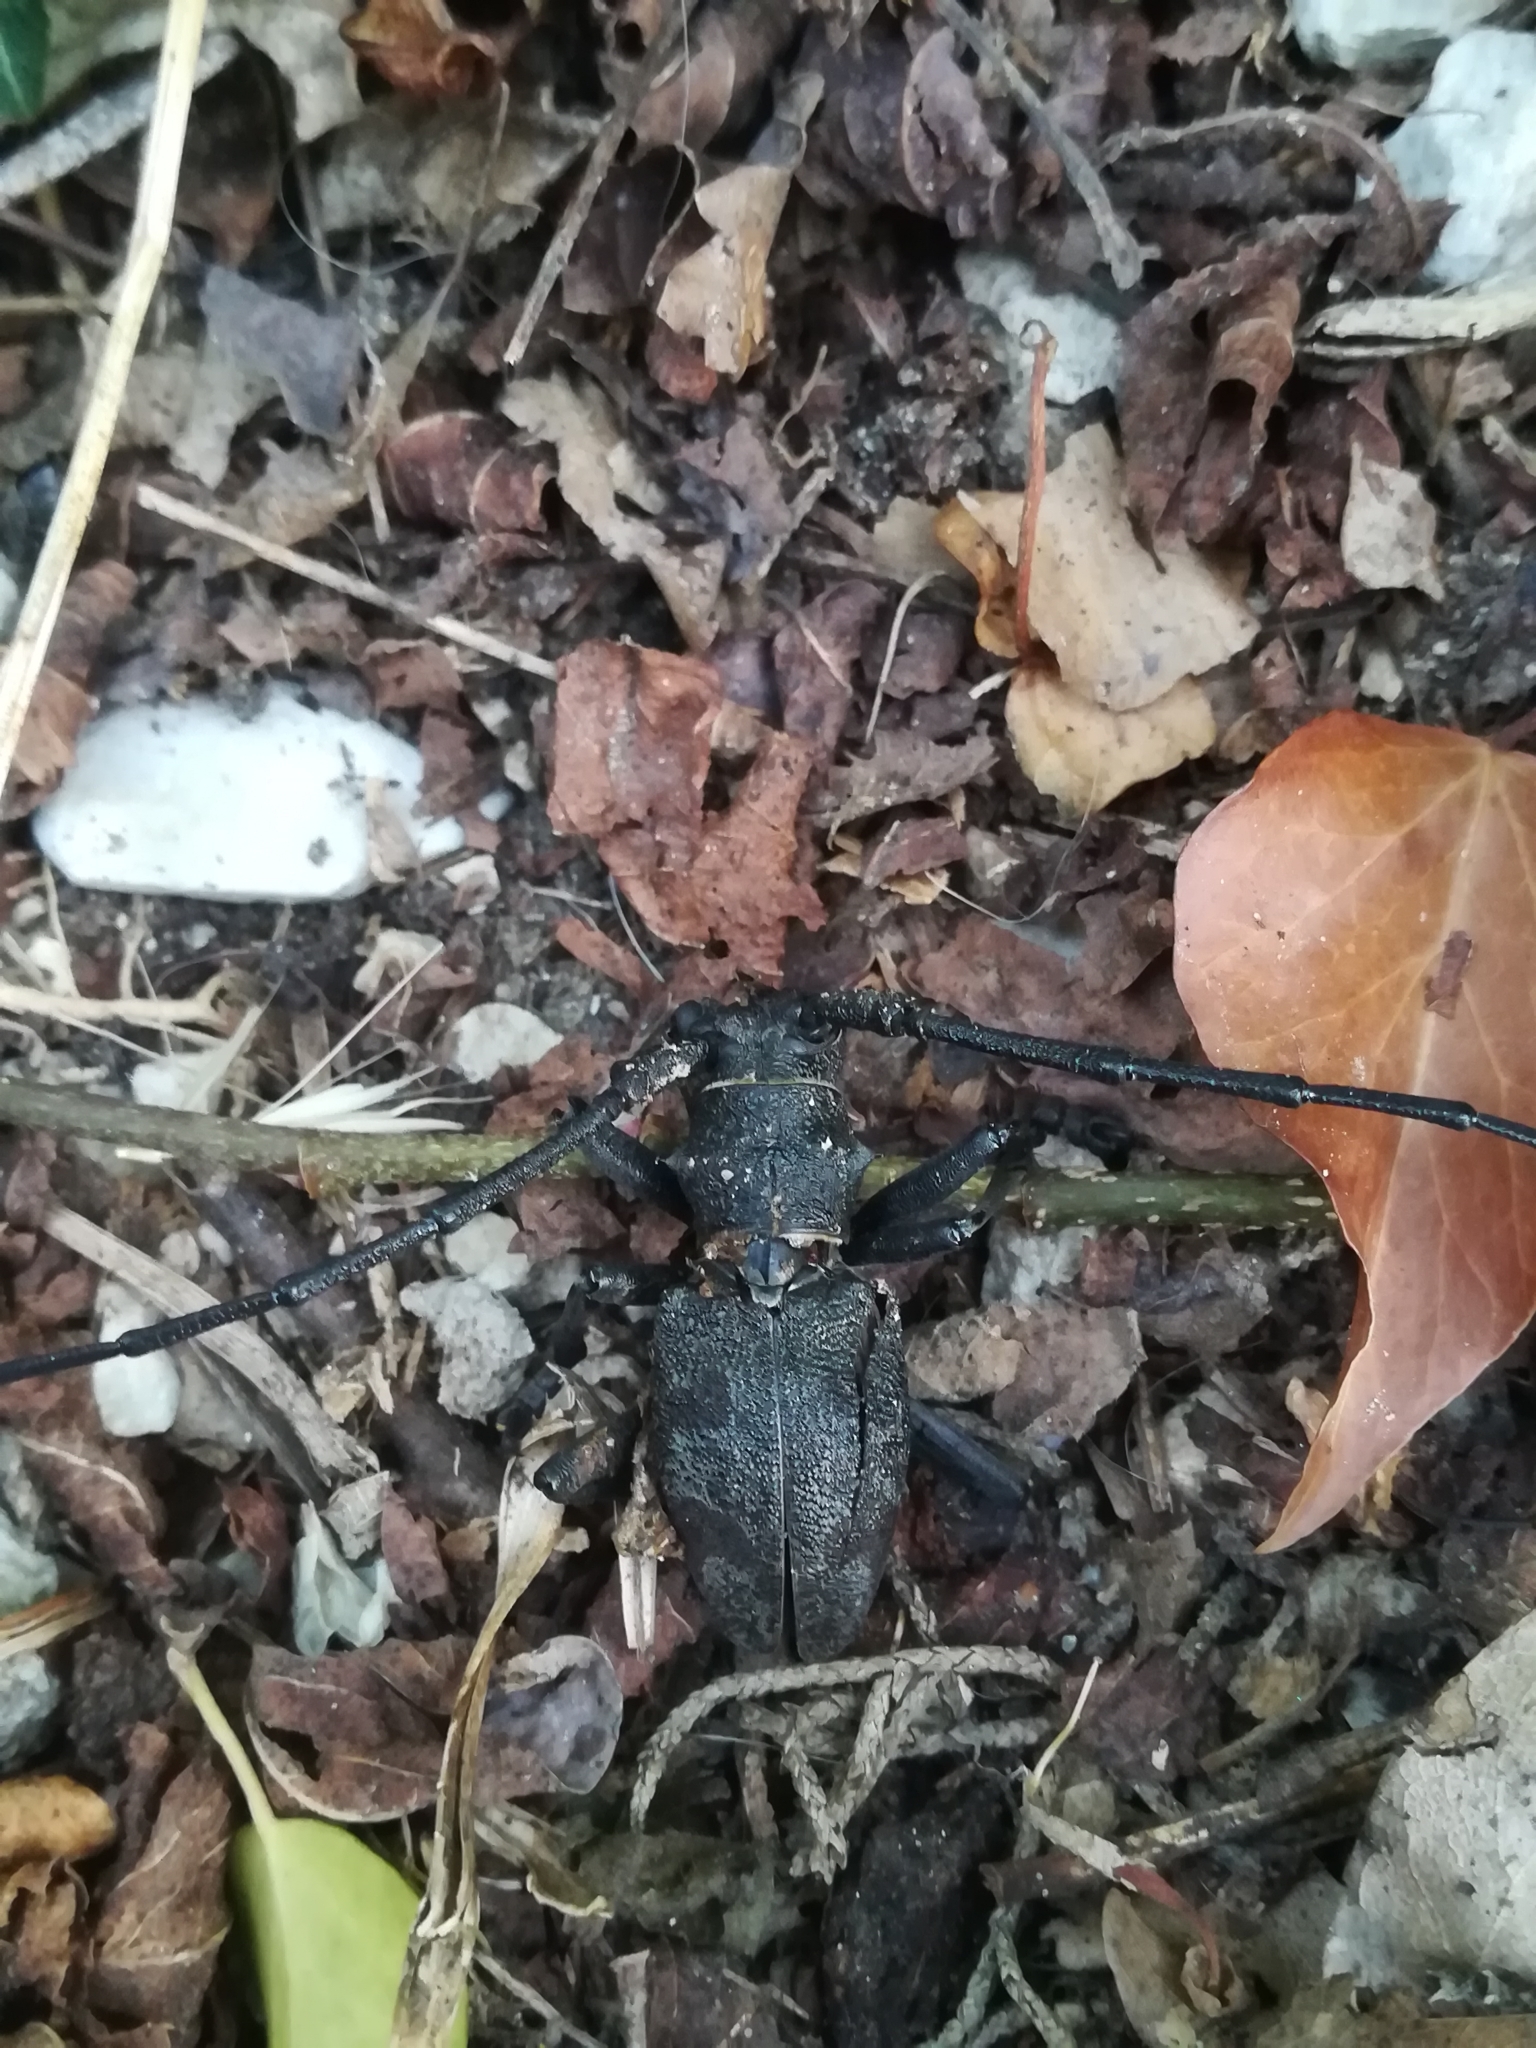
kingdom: Animalia
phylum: Arthropoda
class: Insecta
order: Coleoptera
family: Cerambycidae
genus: Morimus
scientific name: Morimus asper
